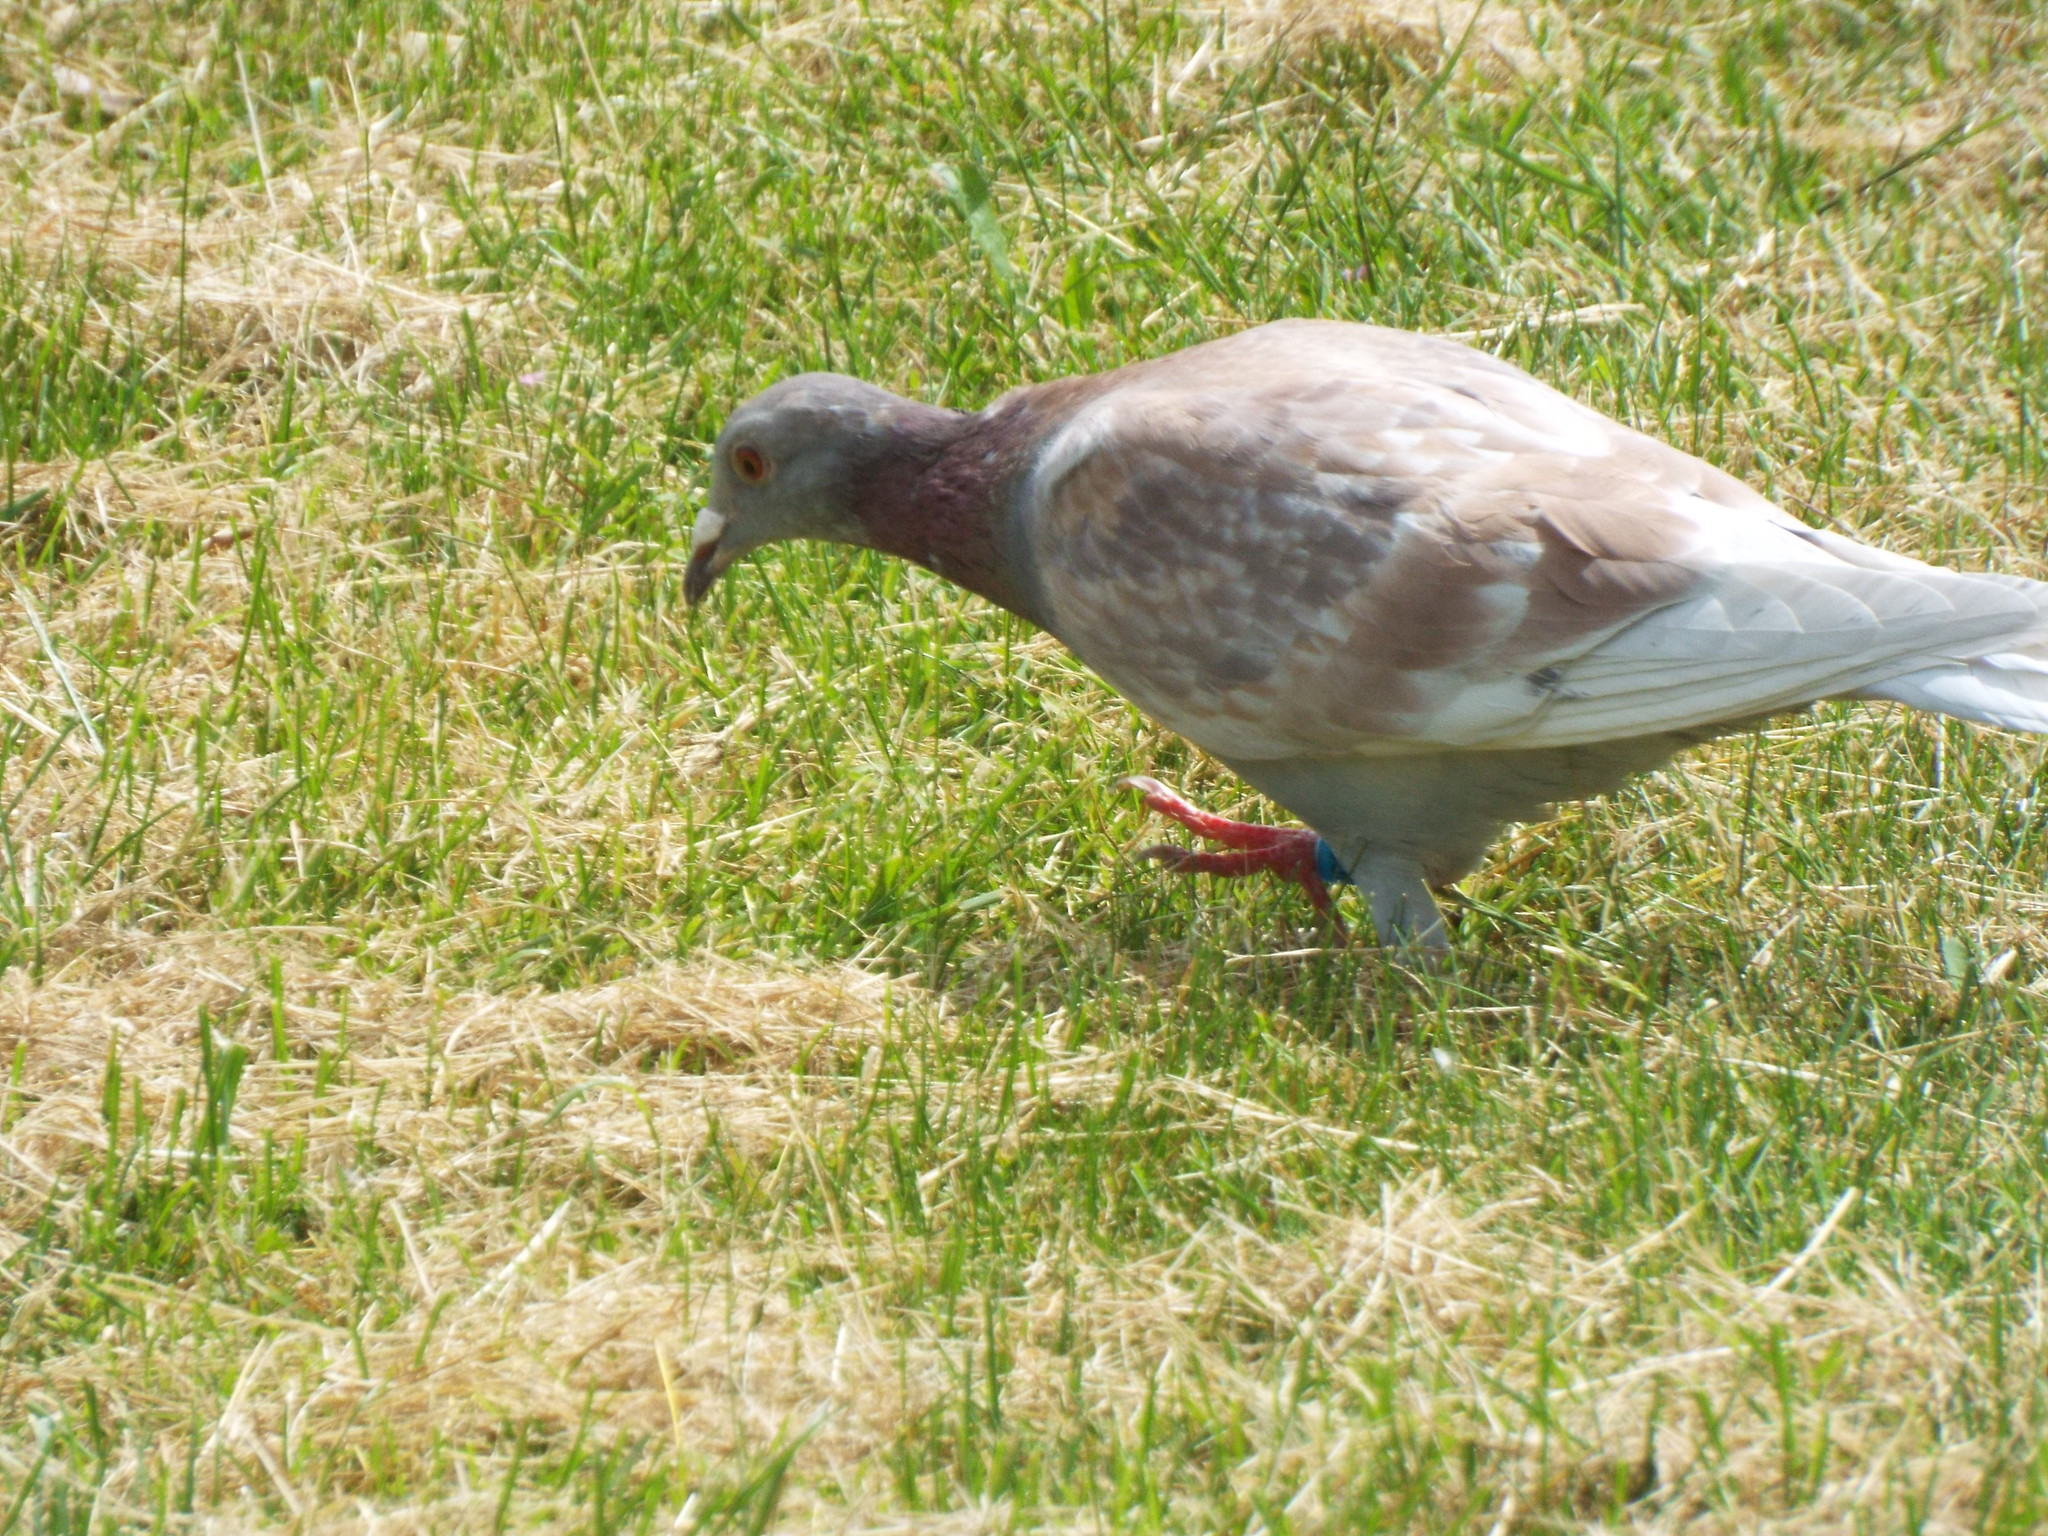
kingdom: Animalia
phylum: Chordata
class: Aves
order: Columbiformes
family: Columbidae
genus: Columba
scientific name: Columba livia
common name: Rock pigeon
